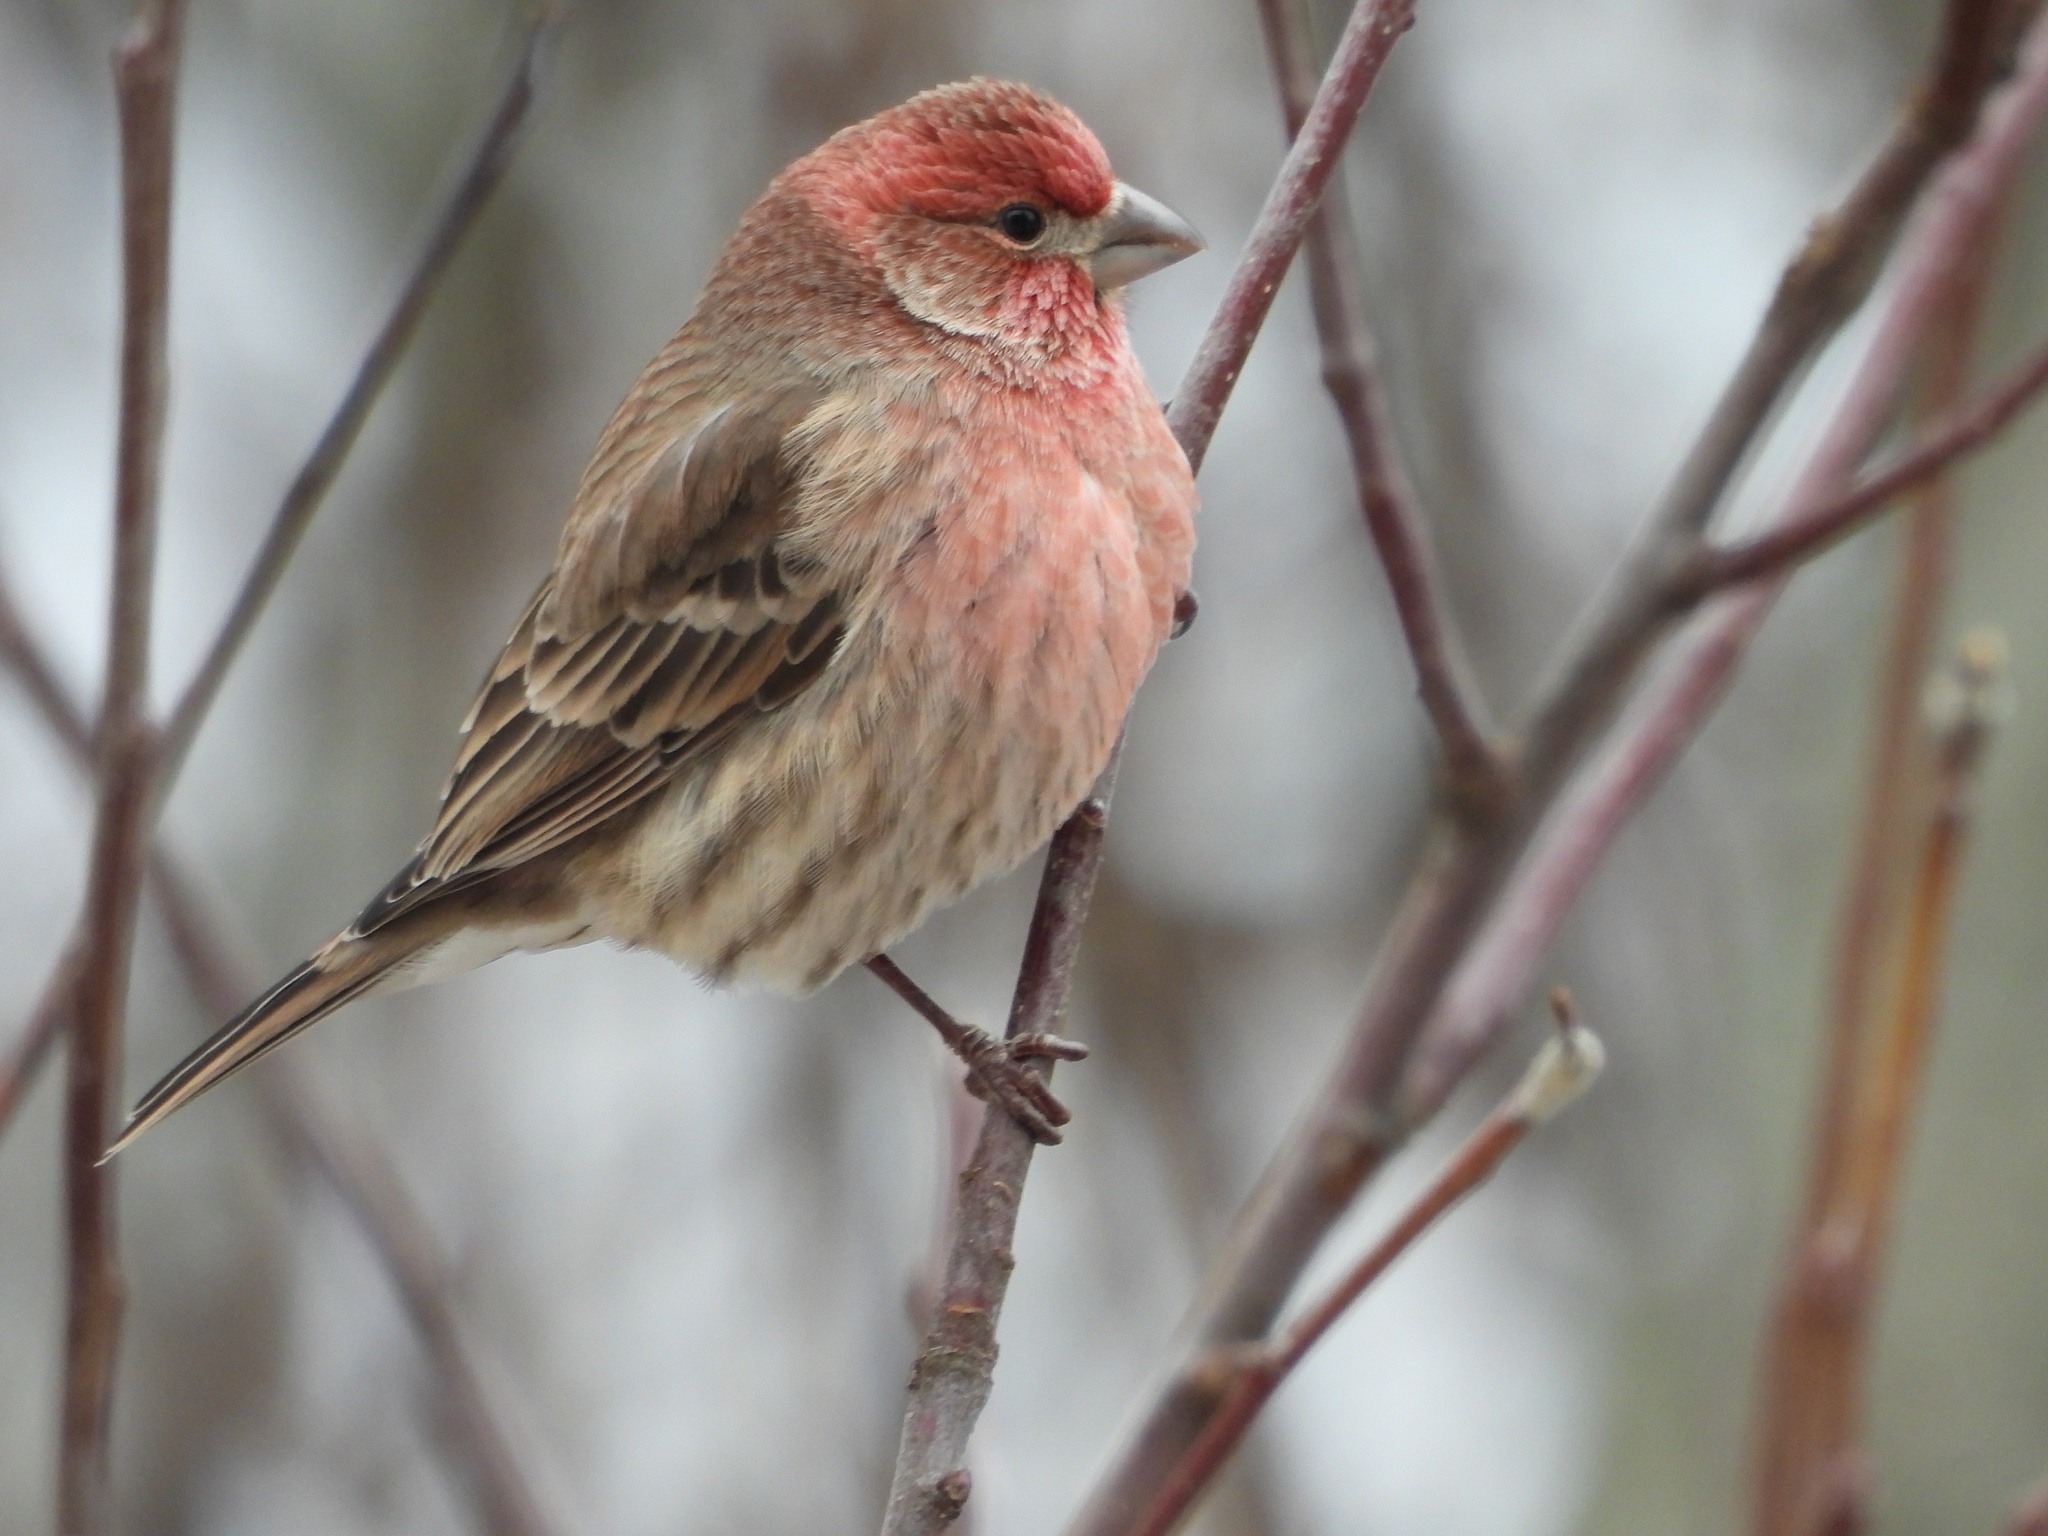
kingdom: Animalia
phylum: Chordata
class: Aves
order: Passeriformes
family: Fringillidae
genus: Haemorhous
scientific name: Haemorhous mexicanus
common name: House finch
